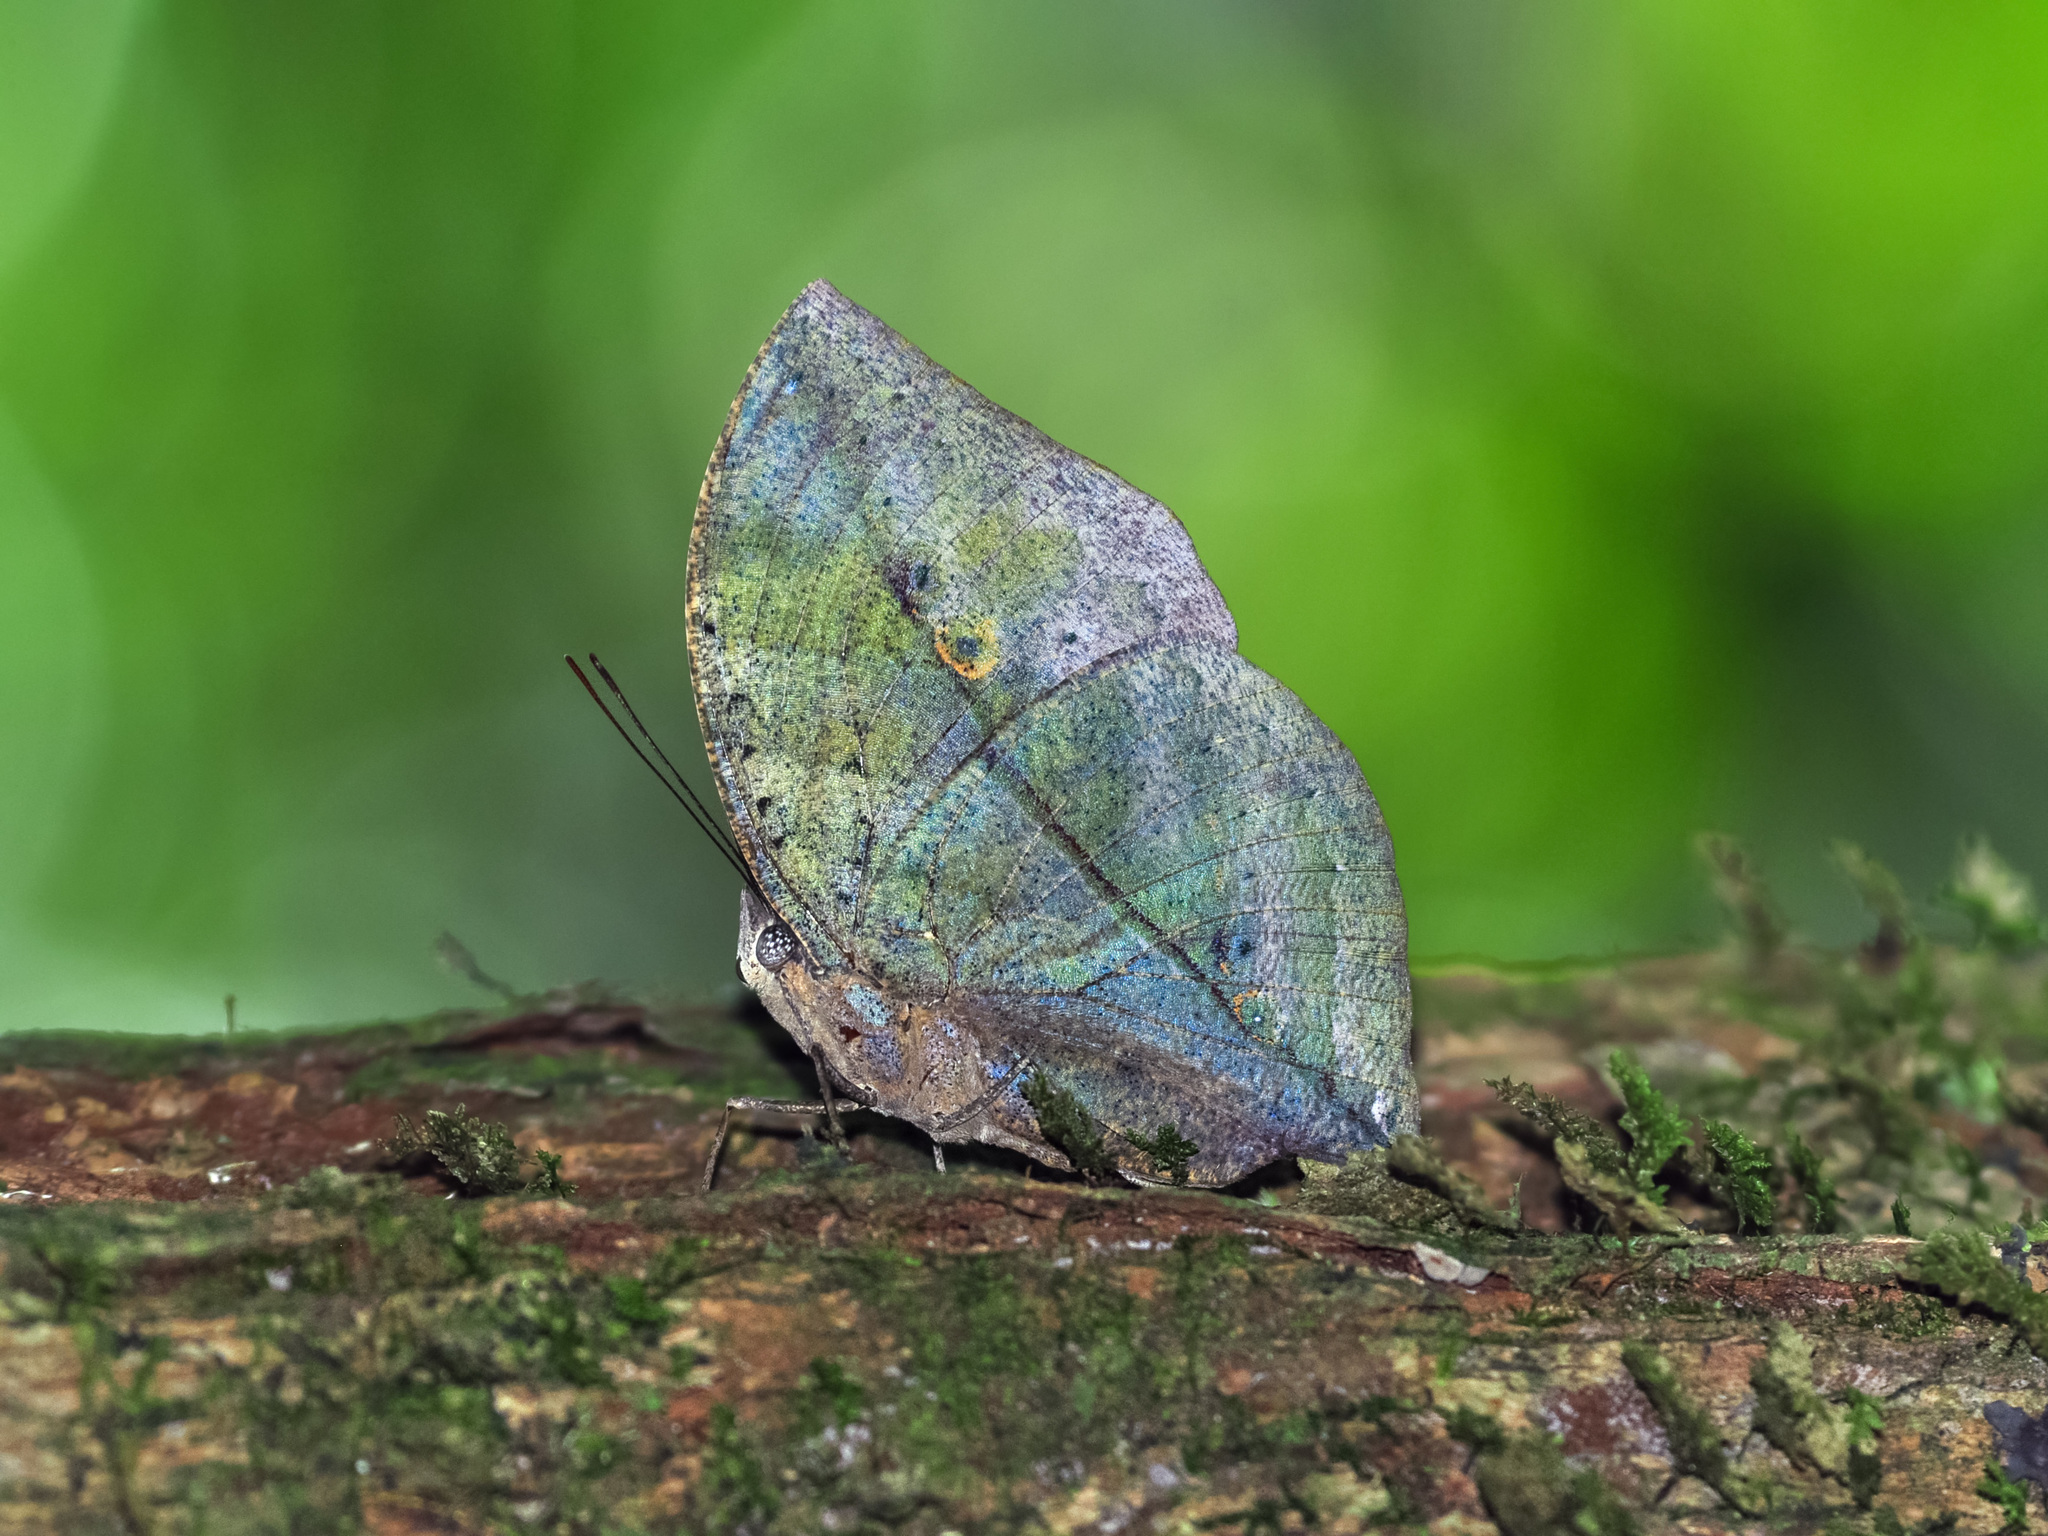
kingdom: Animalia
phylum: Arthropoda
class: Insecta
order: Lepidoptera
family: Nymphalidae
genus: Kallima
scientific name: Kallima paralekta
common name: Indian leafwing
